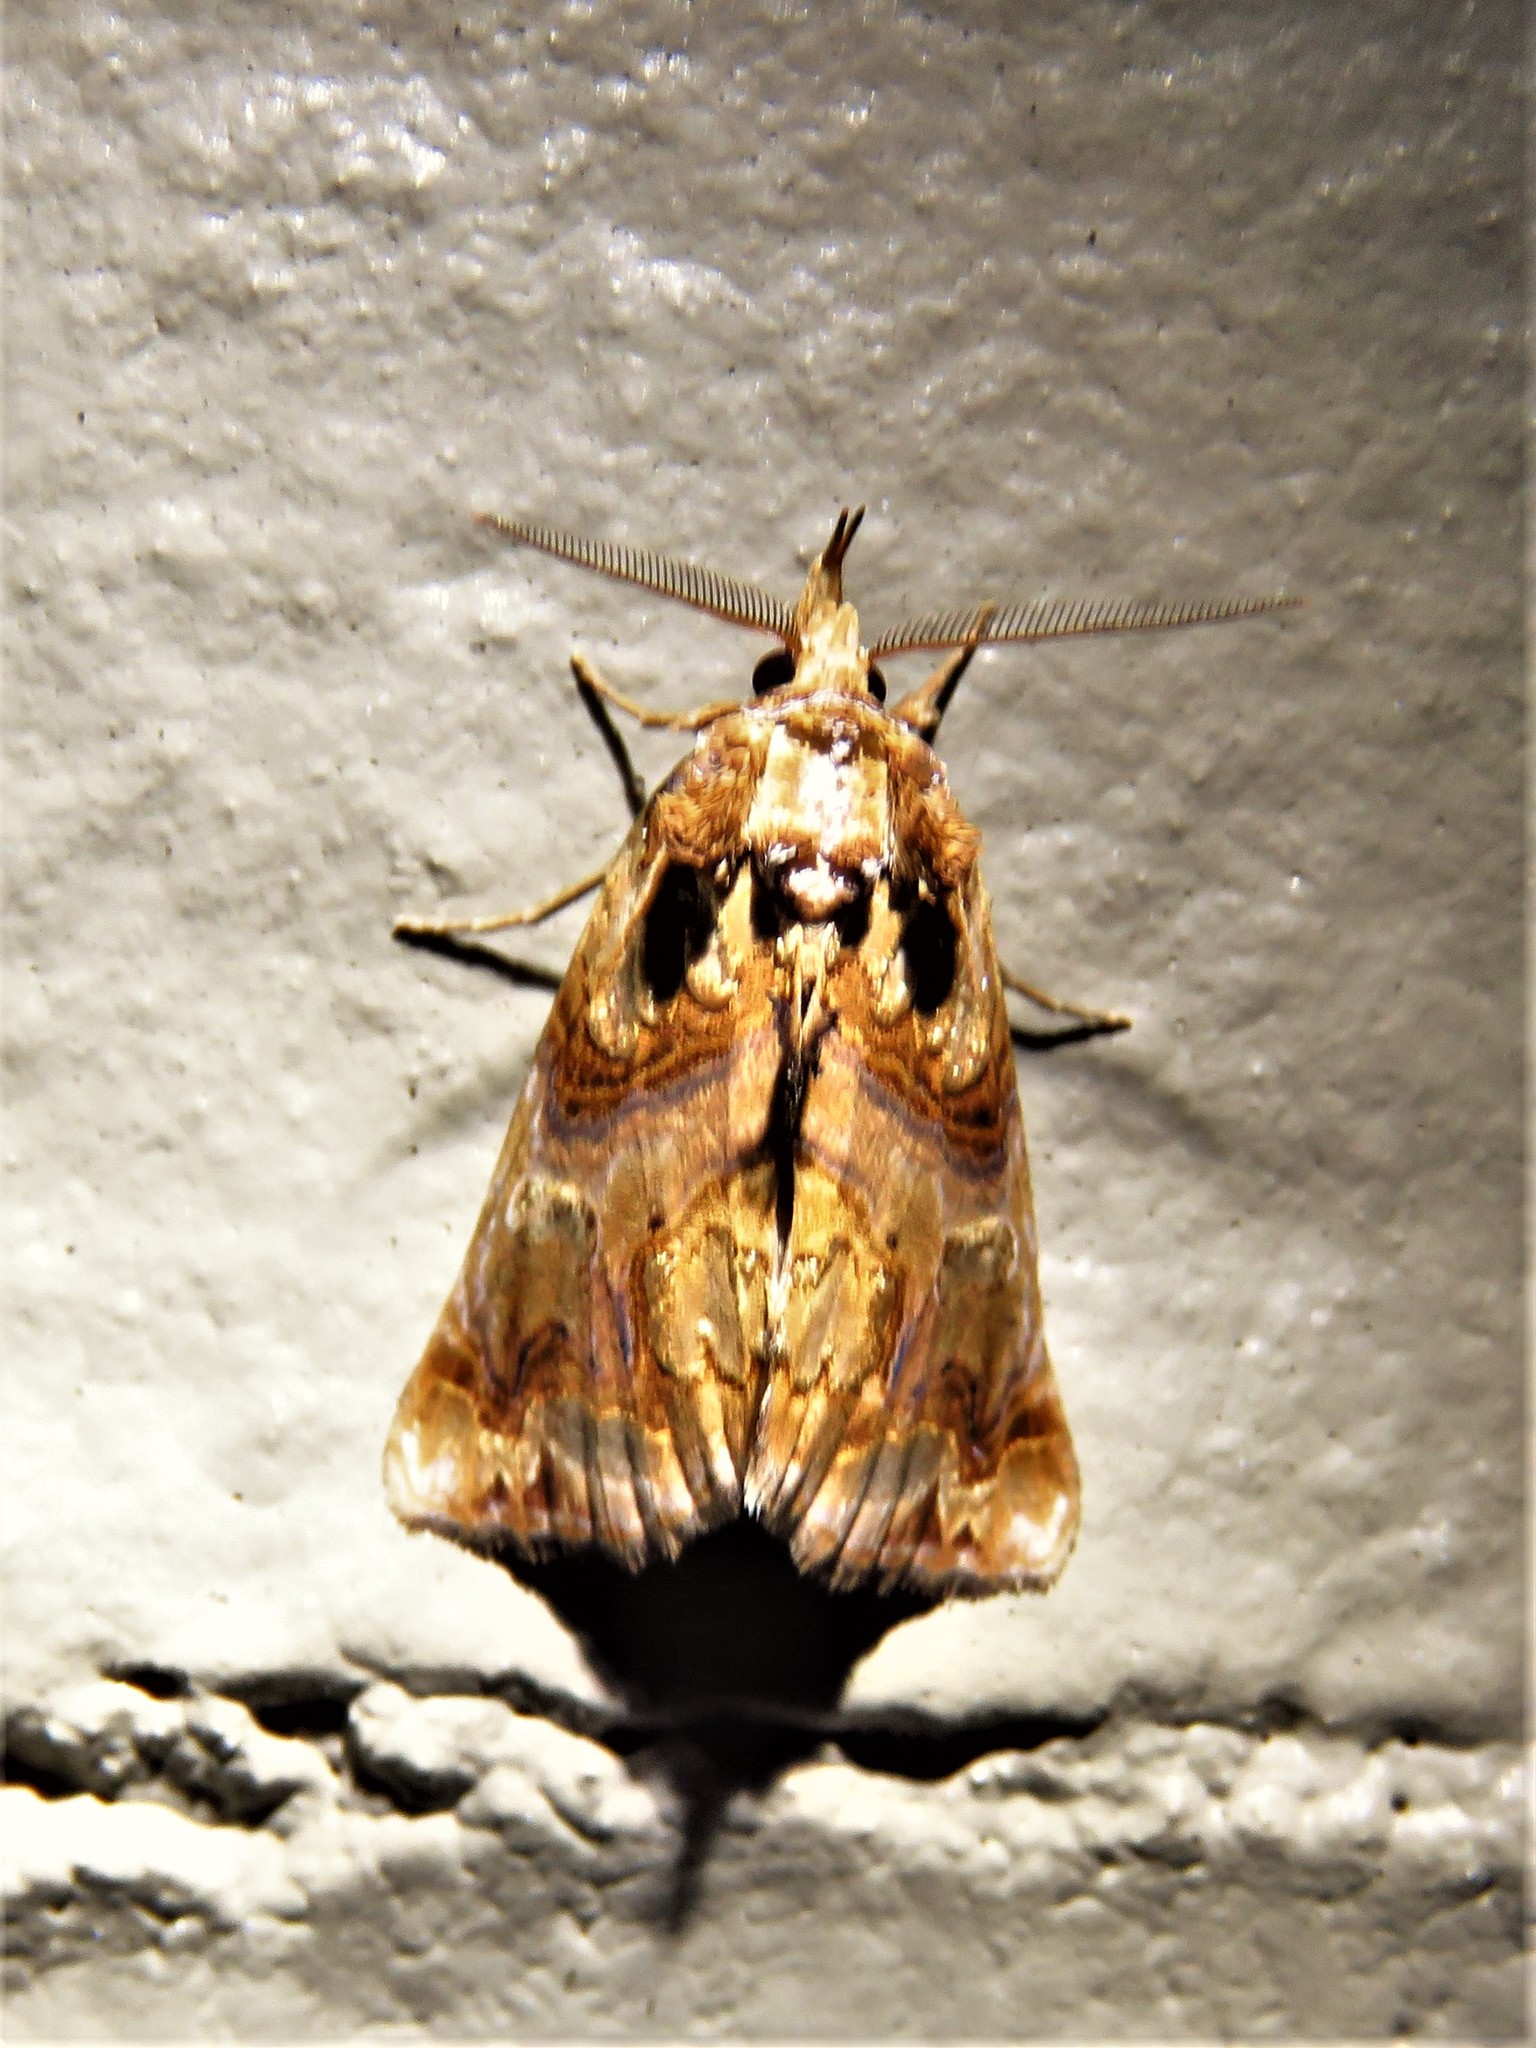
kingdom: Animalia
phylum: Arthropoda
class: Insecta
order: Lepidoptera
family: Erebidae
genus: Plusiodonta
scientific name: Plusiodonta compressipalpis
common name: Moonseed moth
